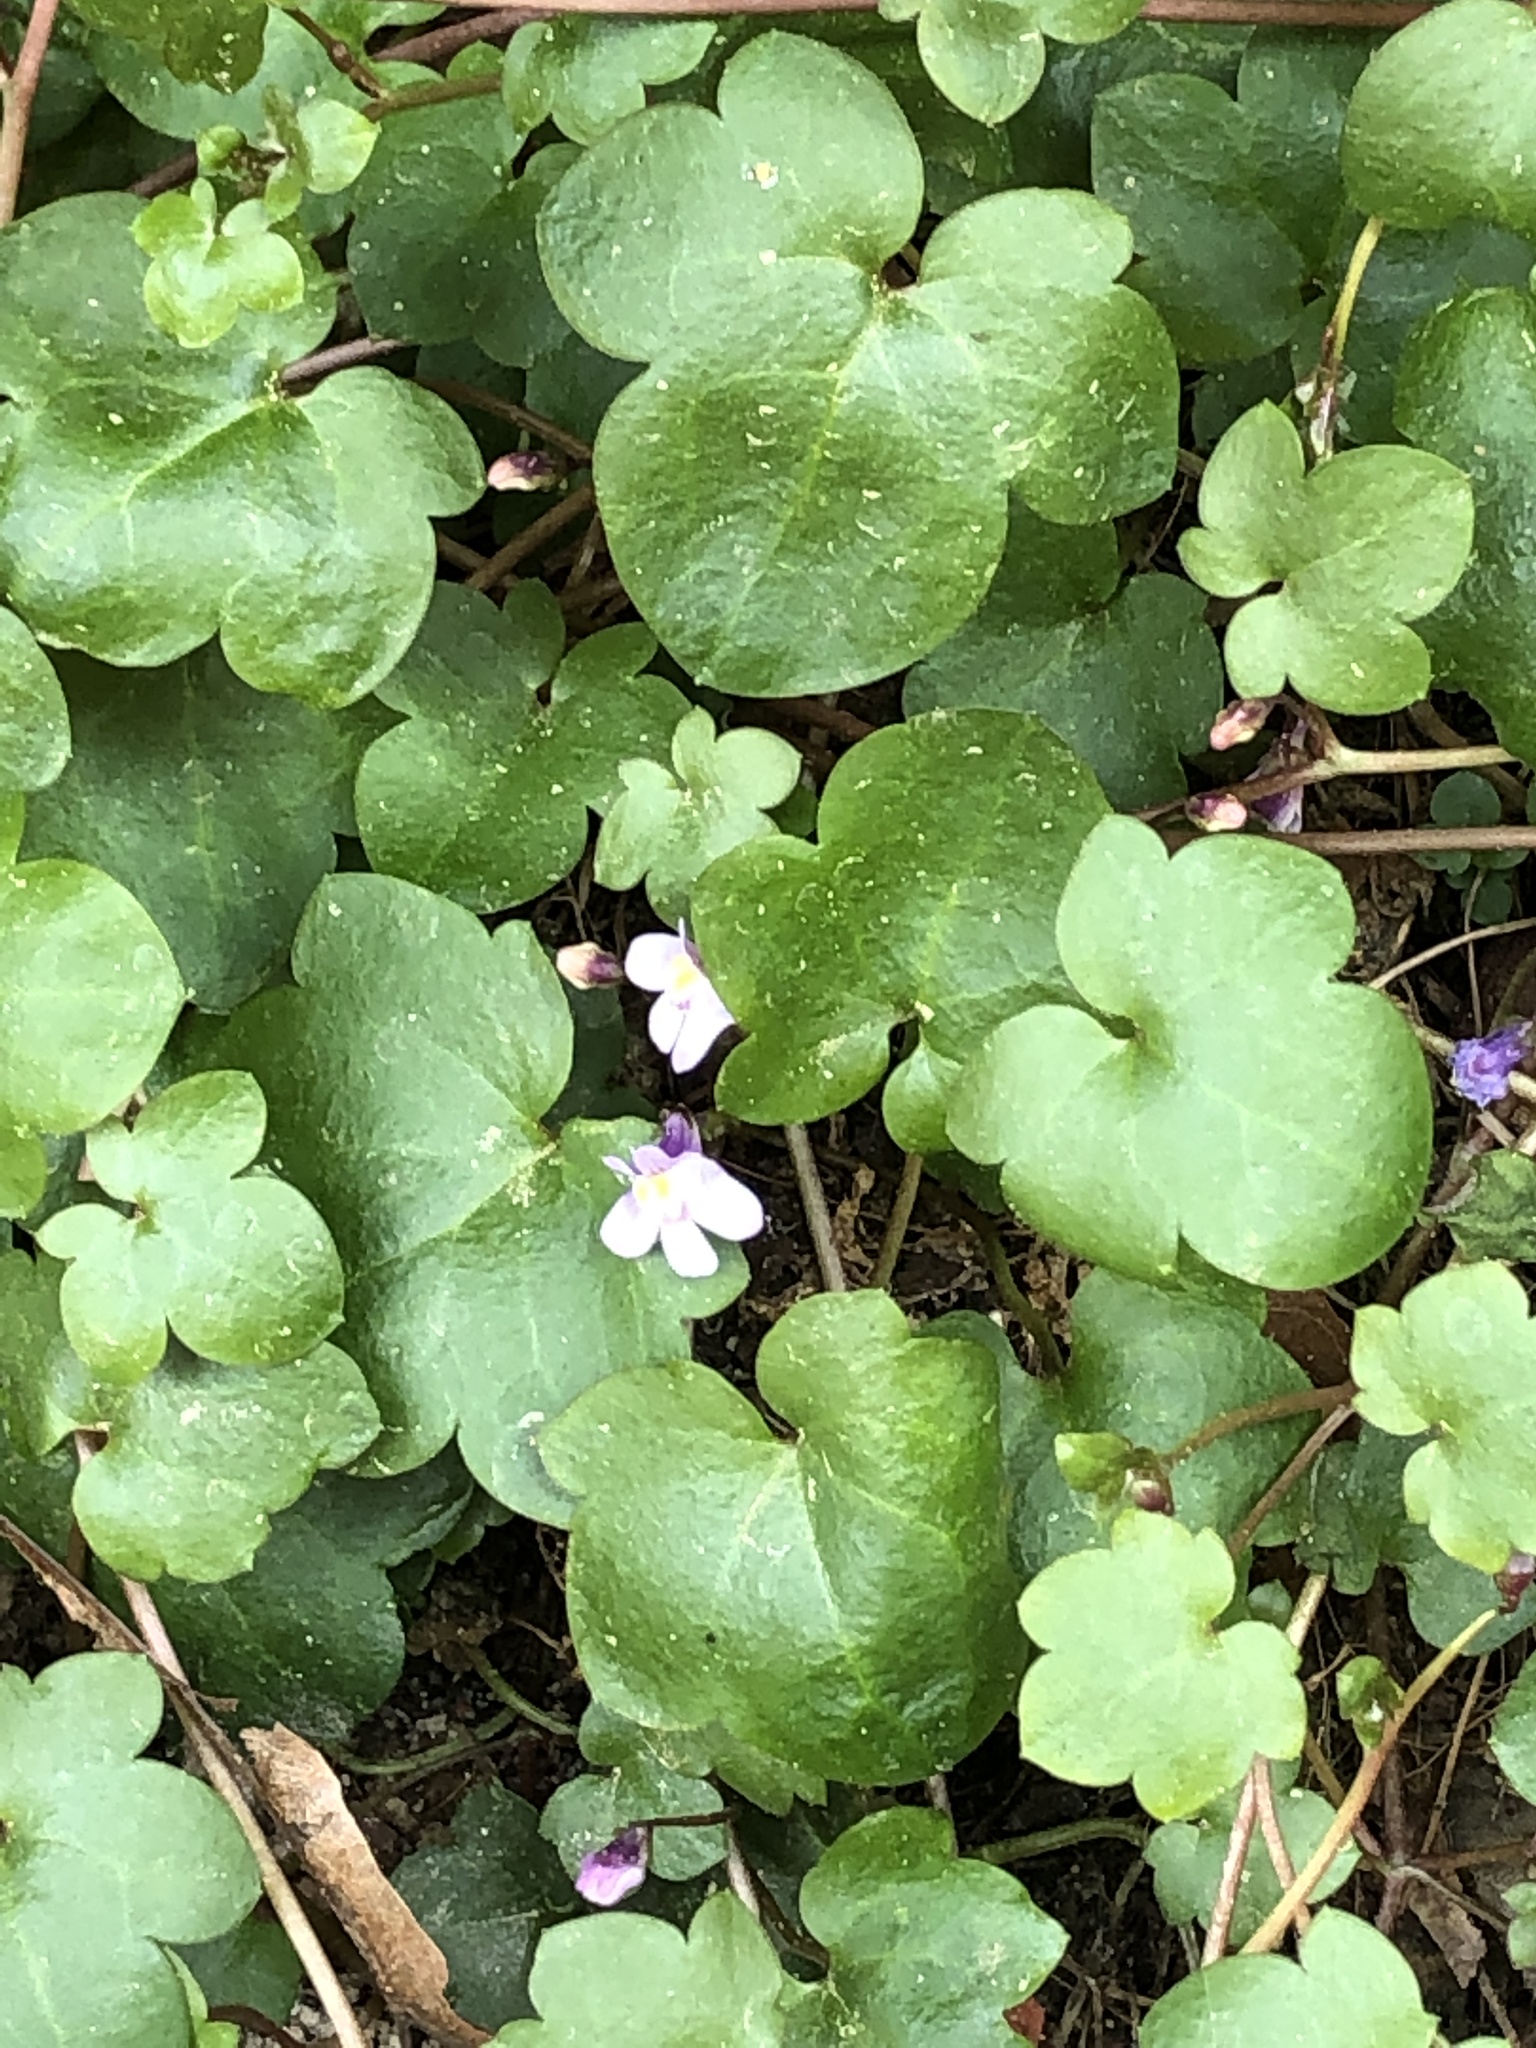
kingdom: Plantae
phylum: Tracheophyta
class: Magnoliopsida
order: Lamiales
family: Plantaginaceae
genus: Cymbalaria
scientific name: Cymbalaria muralis
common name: Ivy-leaved toadflax
